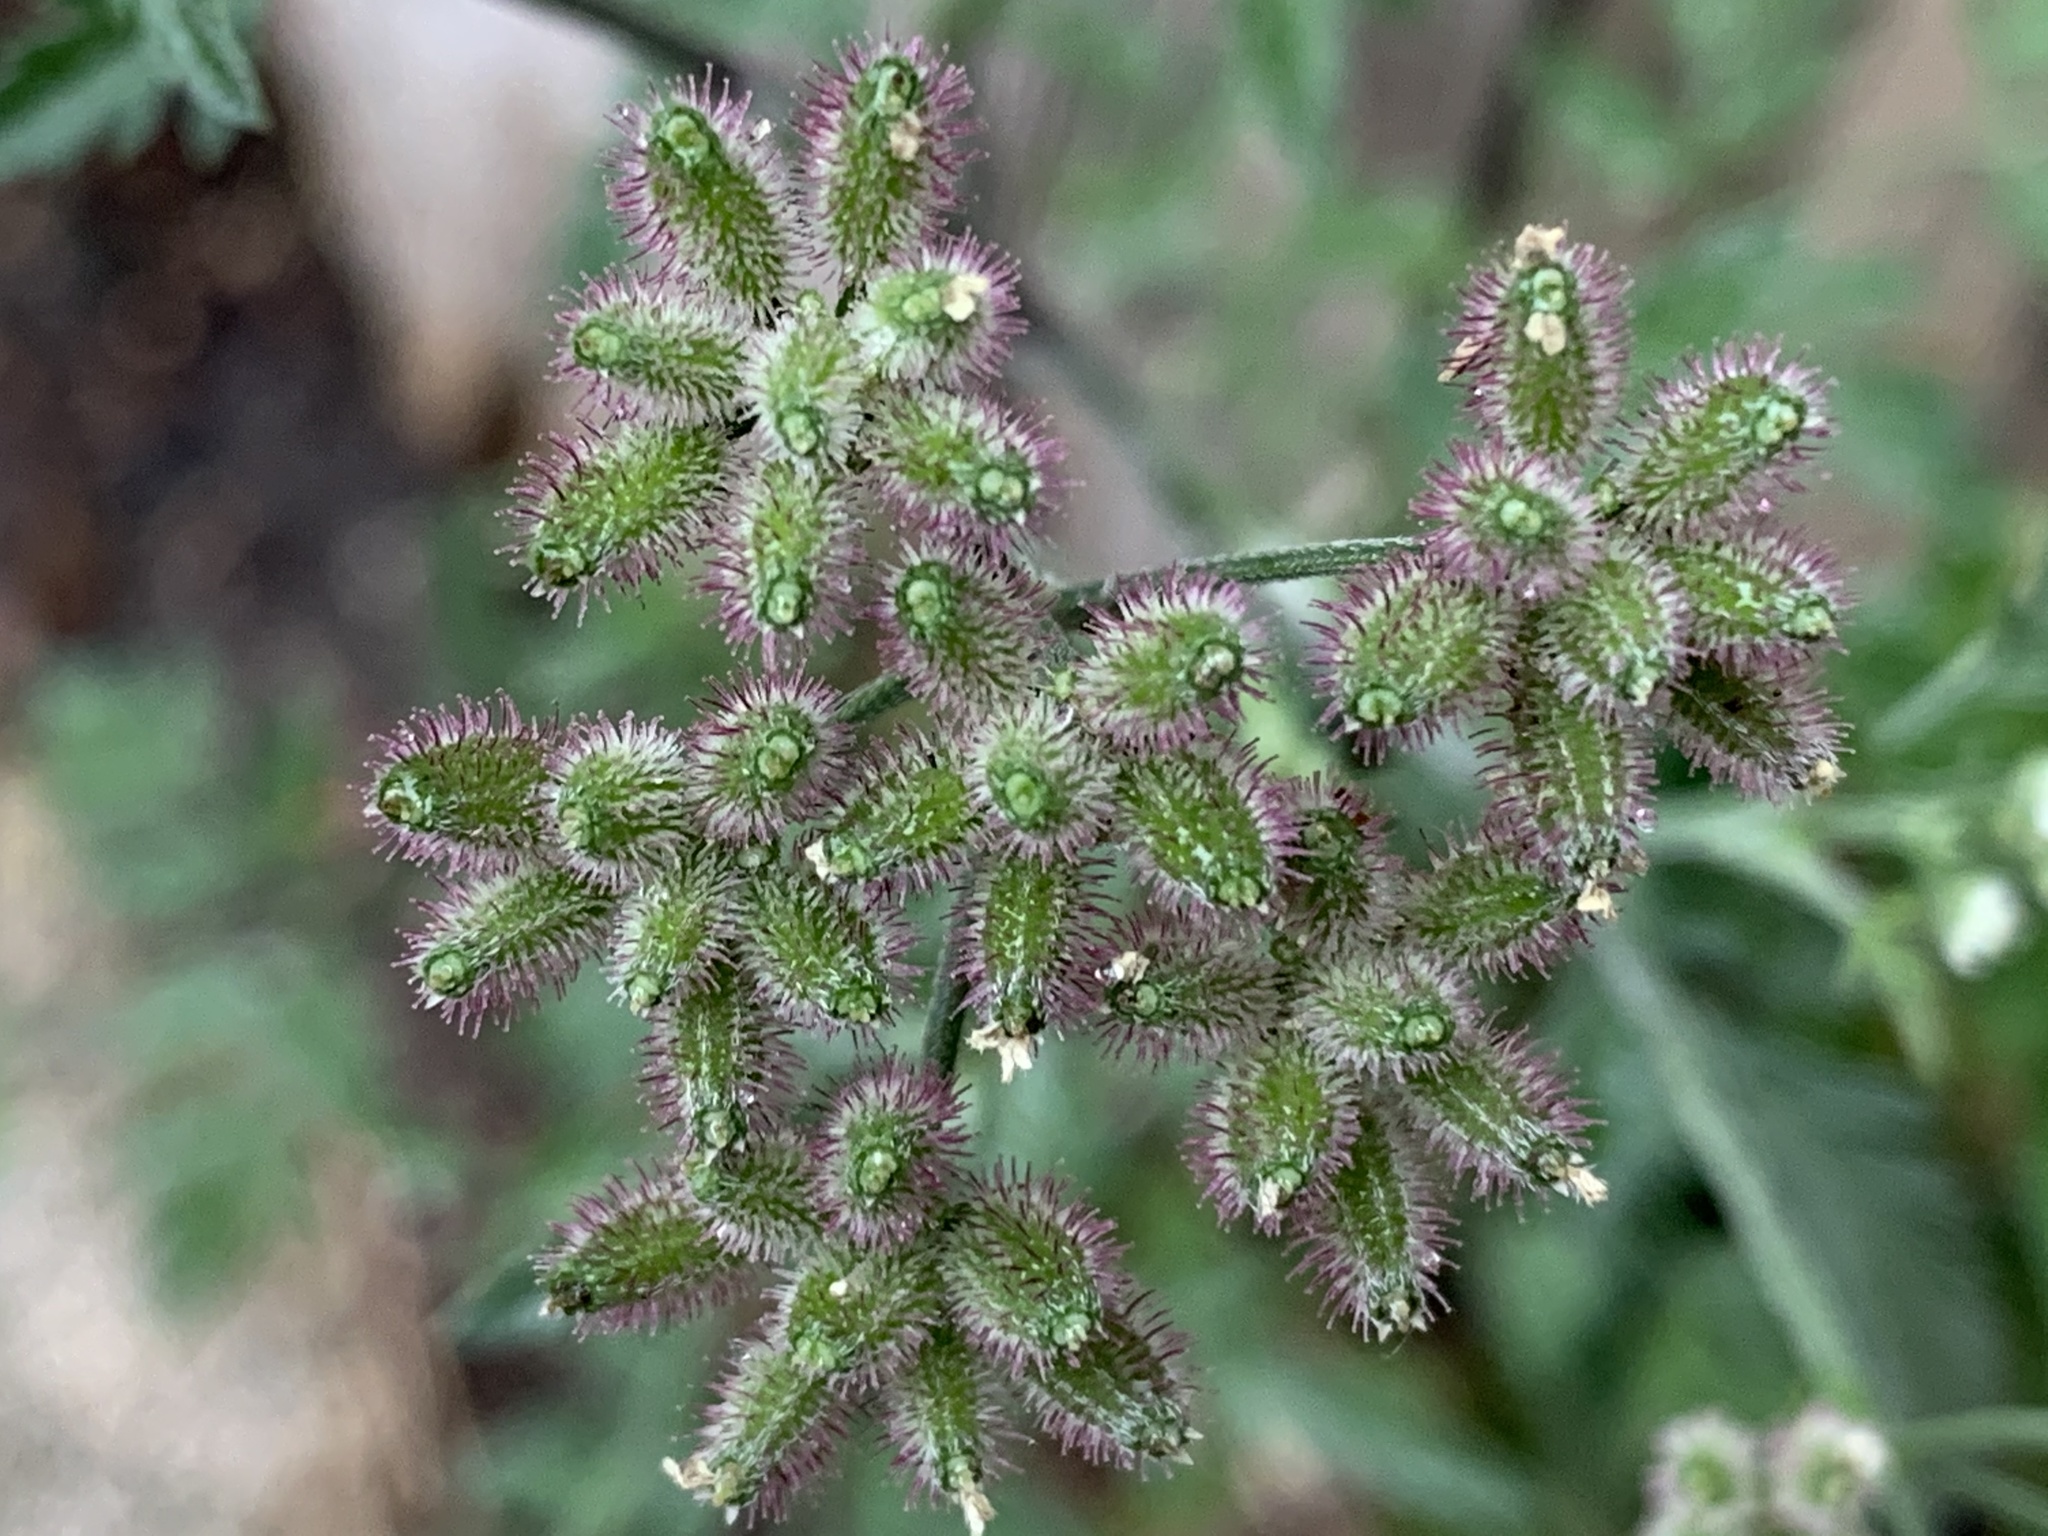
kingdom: Plantae
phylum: Tracheophyta
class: Magnoliopsida
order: Apiales
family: Apiaceae
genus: Torilis
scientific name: Torilis arvensis
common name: Spreading hedge-parsley
